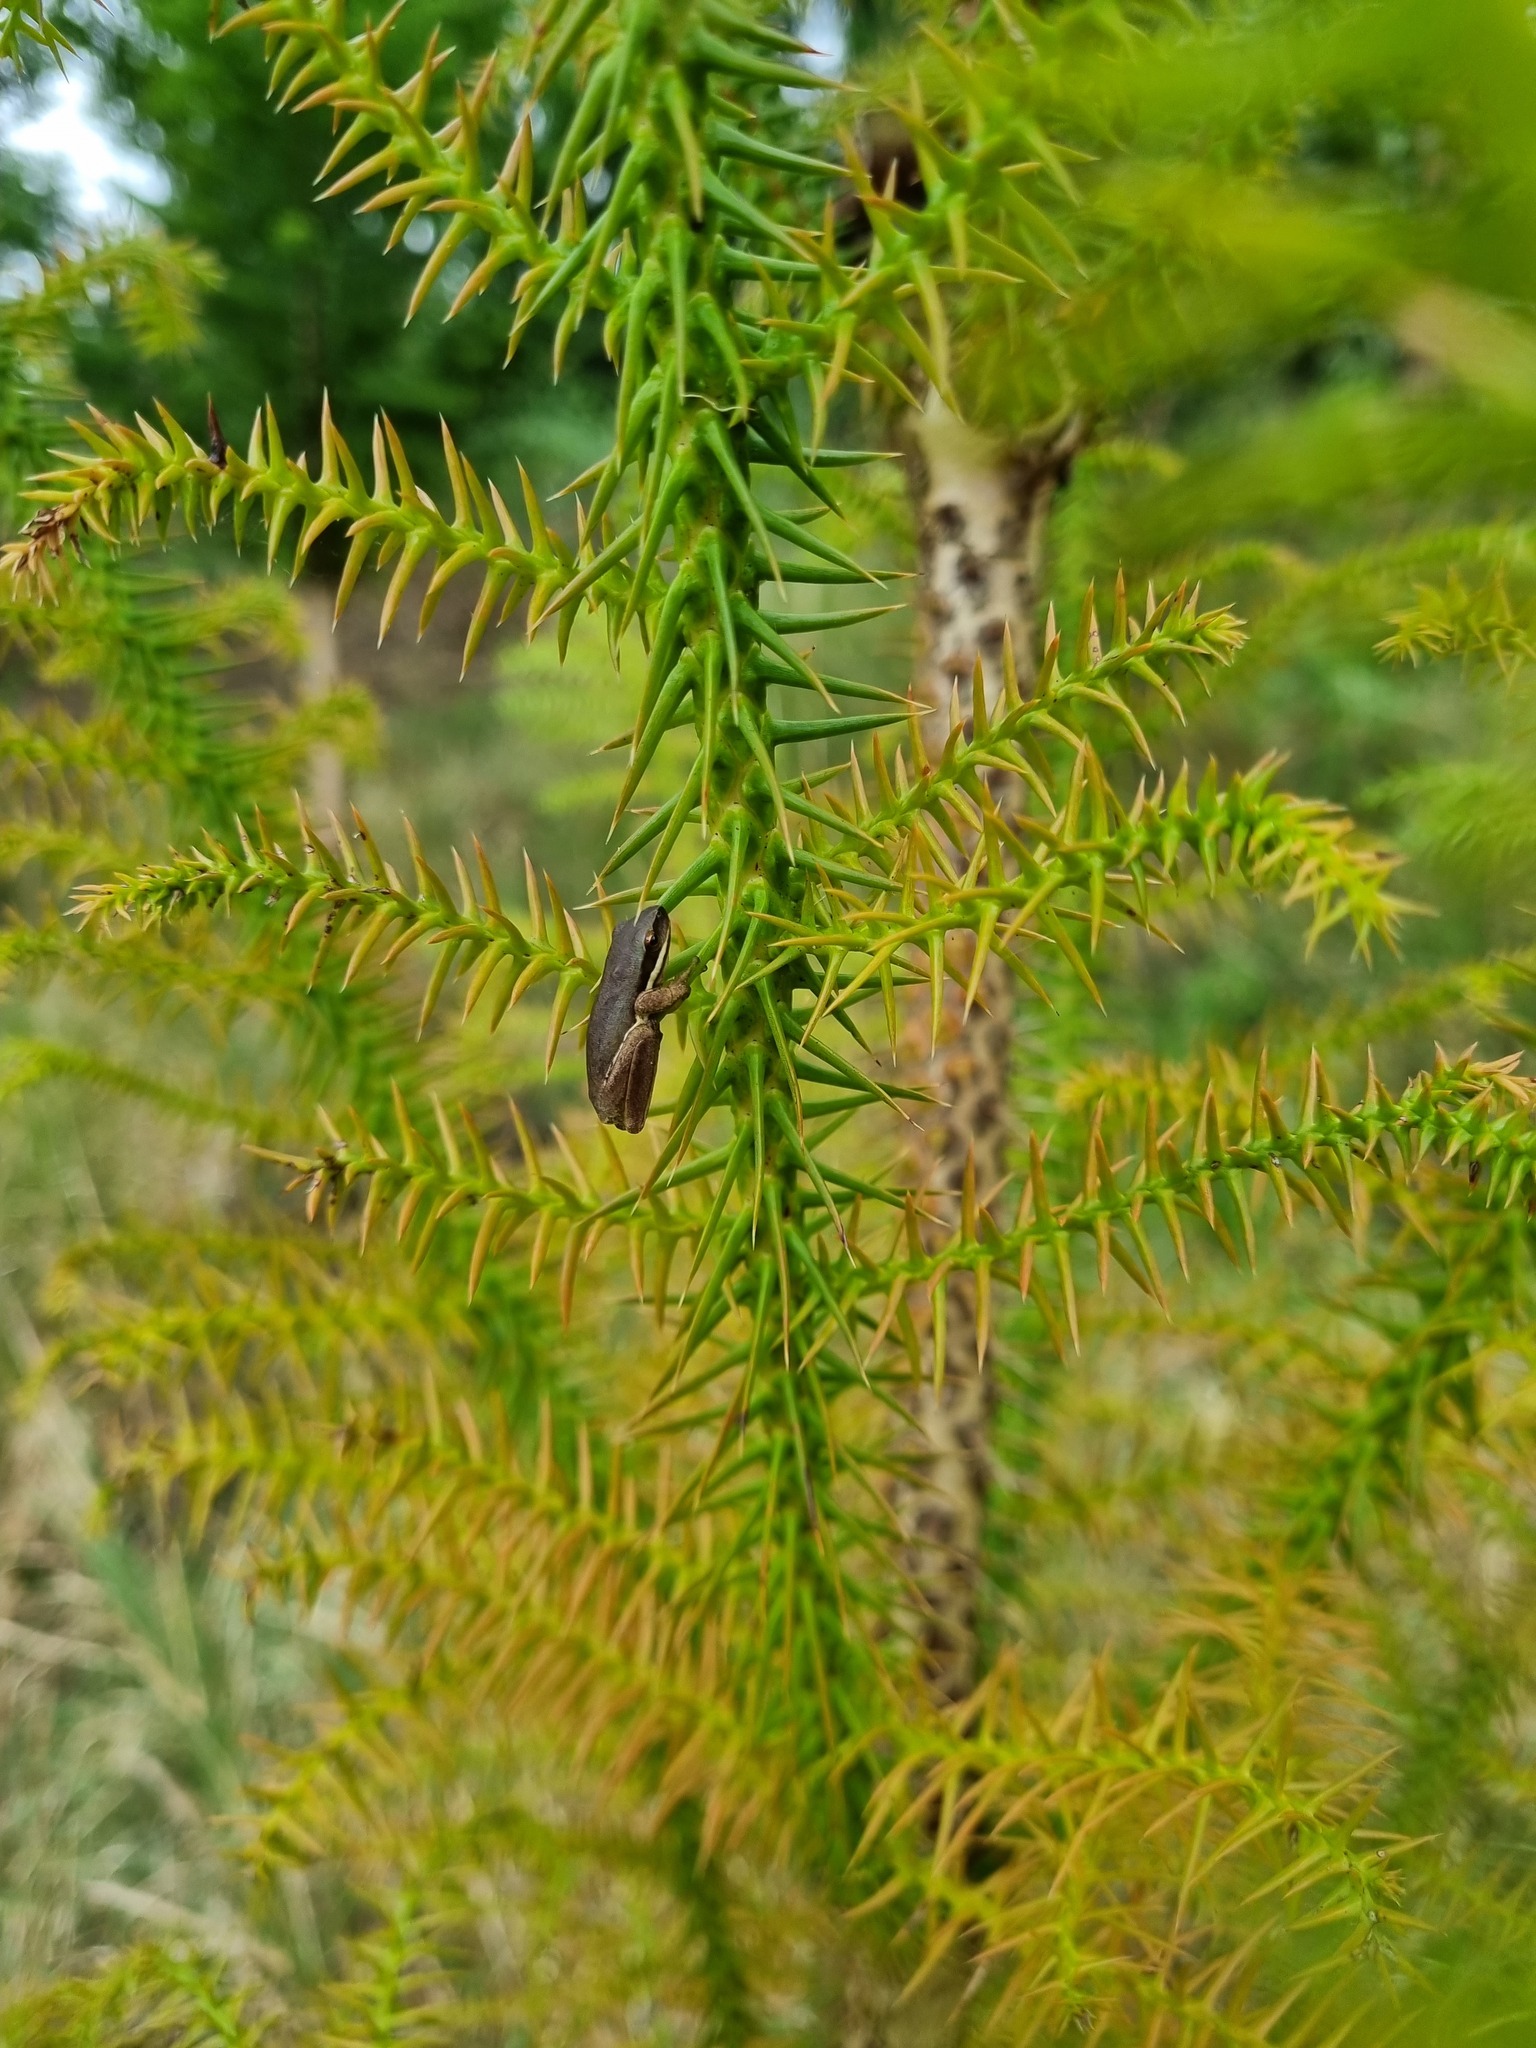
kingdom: Animalia
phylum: Chordata
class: Amphibia
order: Anura
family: Pelodryadidae
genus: Litoria
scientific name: Litoria fallax
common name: Eastern dwarf treefrog
